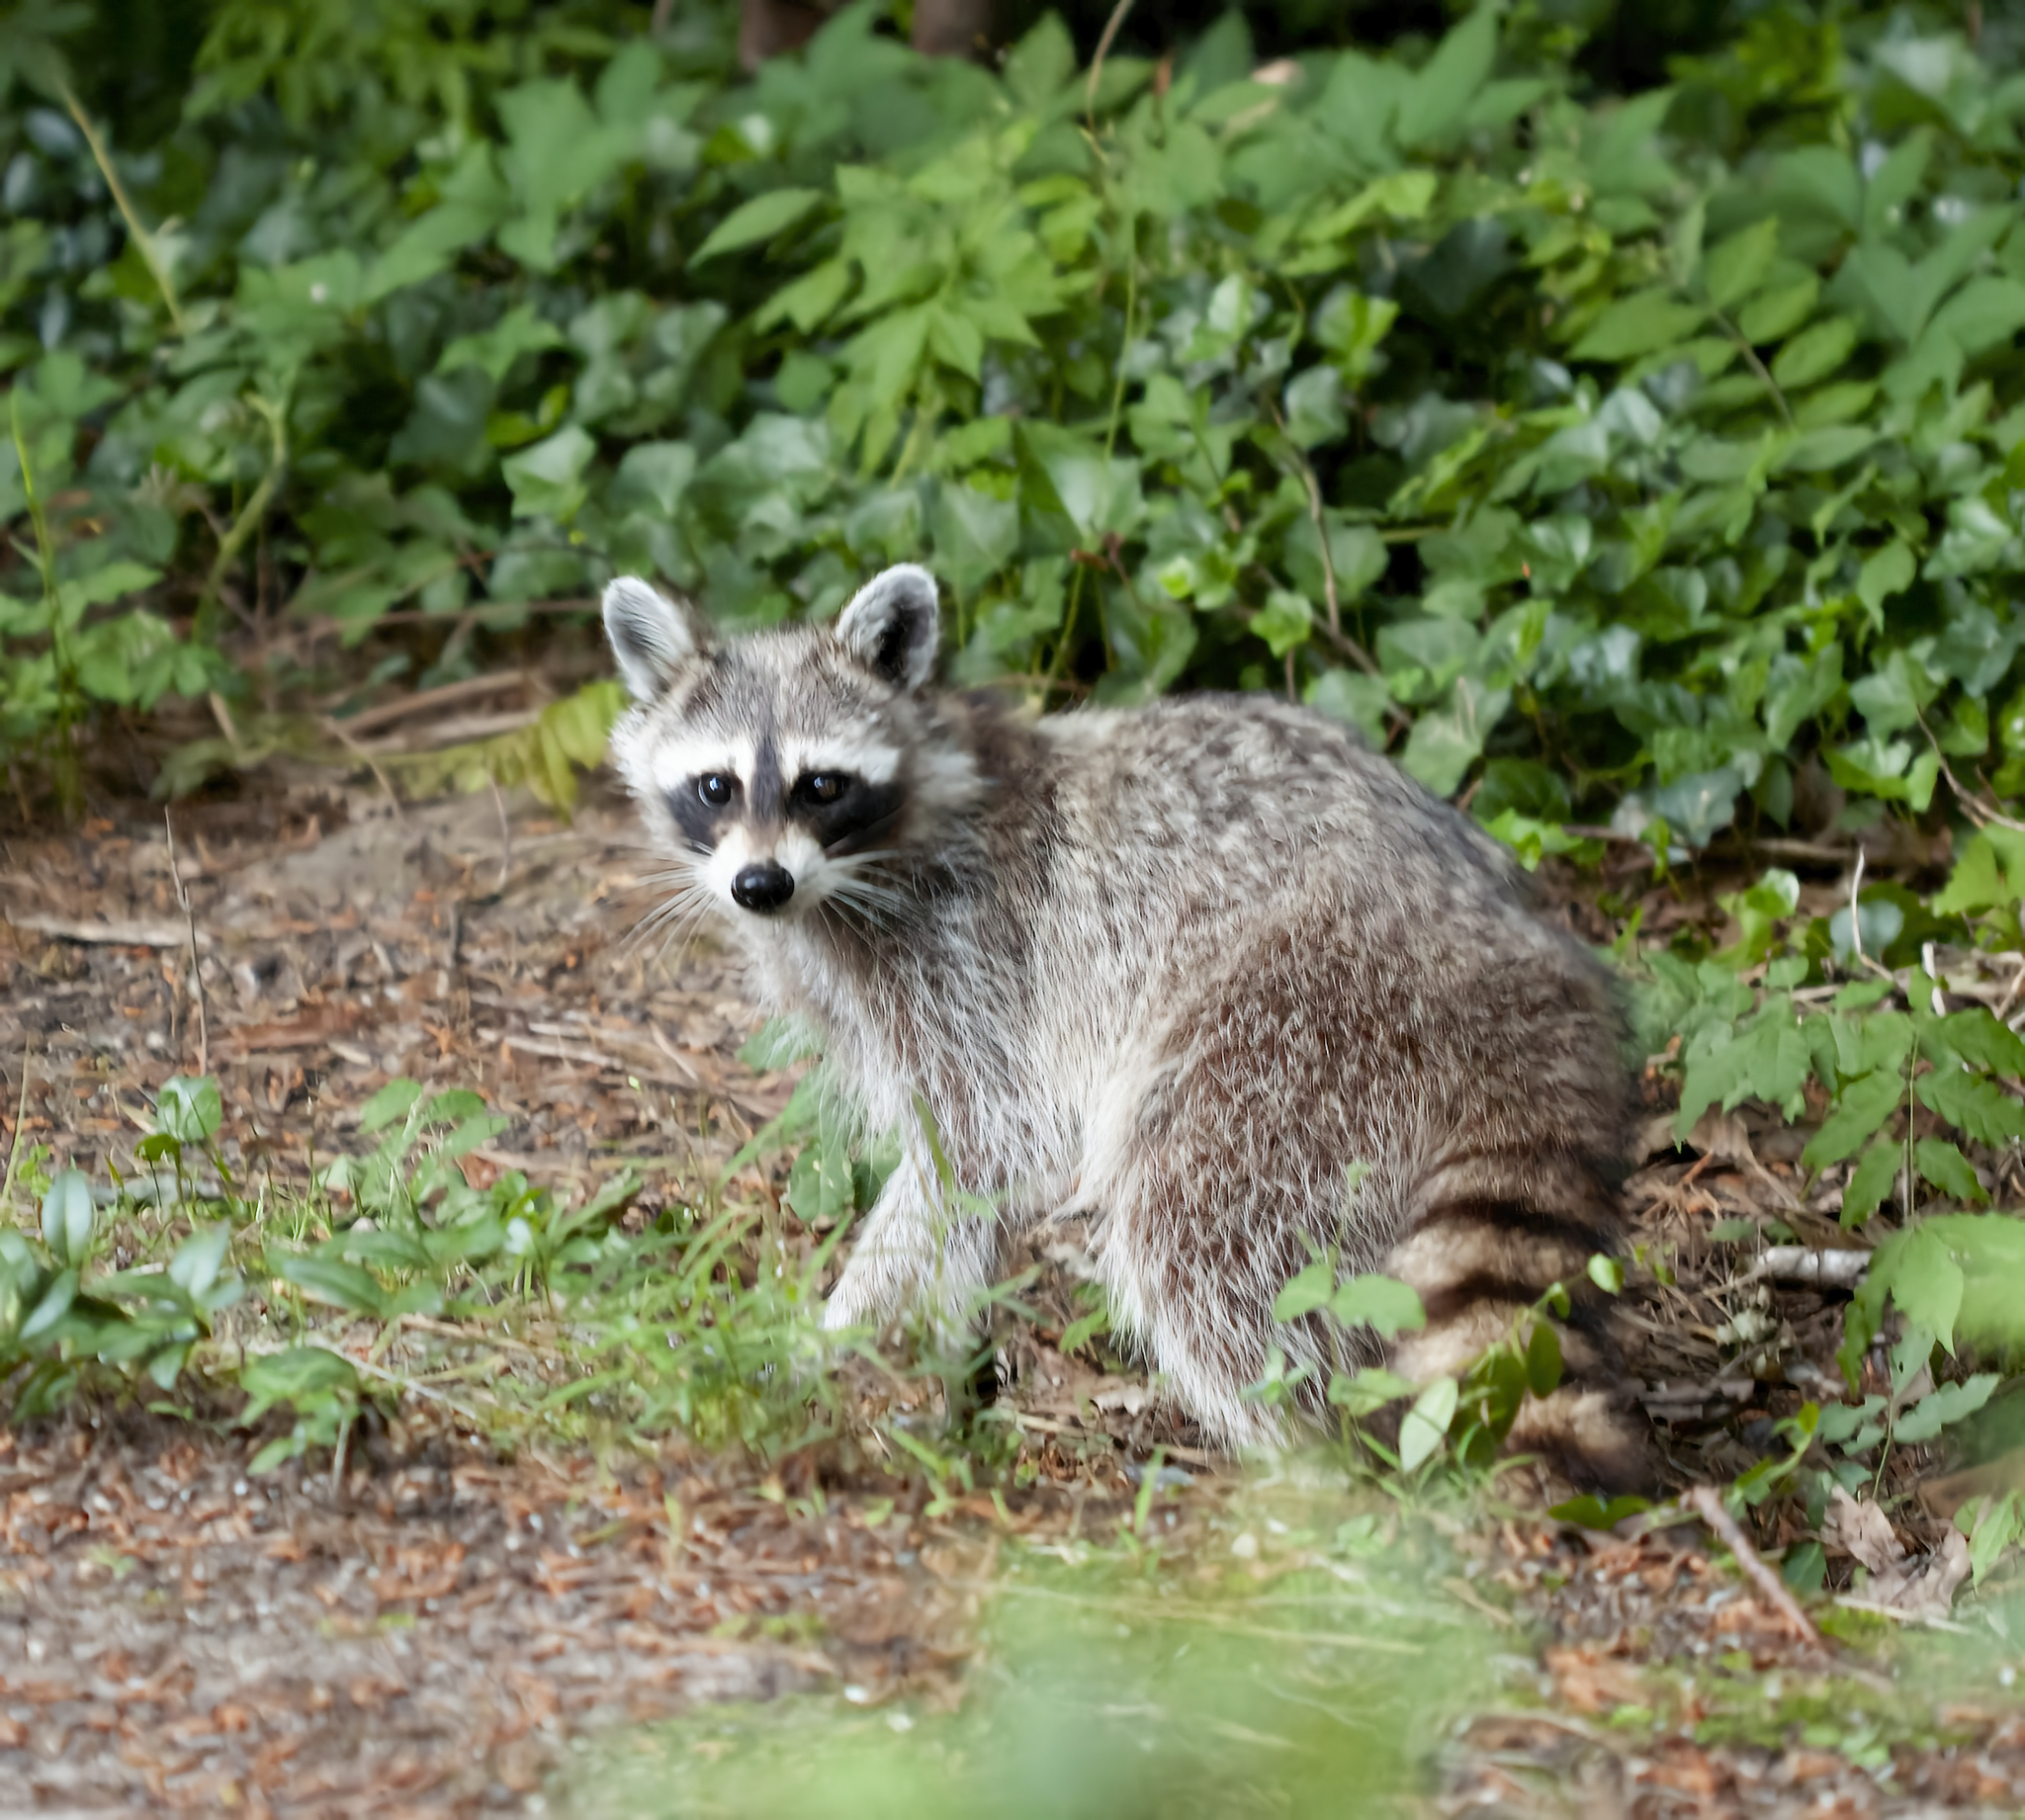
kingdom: Animalia
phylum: Chordata
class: Mammalia
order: Carnivora
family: Procyonidae
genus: Procyon
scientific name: Procyon lotor
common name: Raccoon
